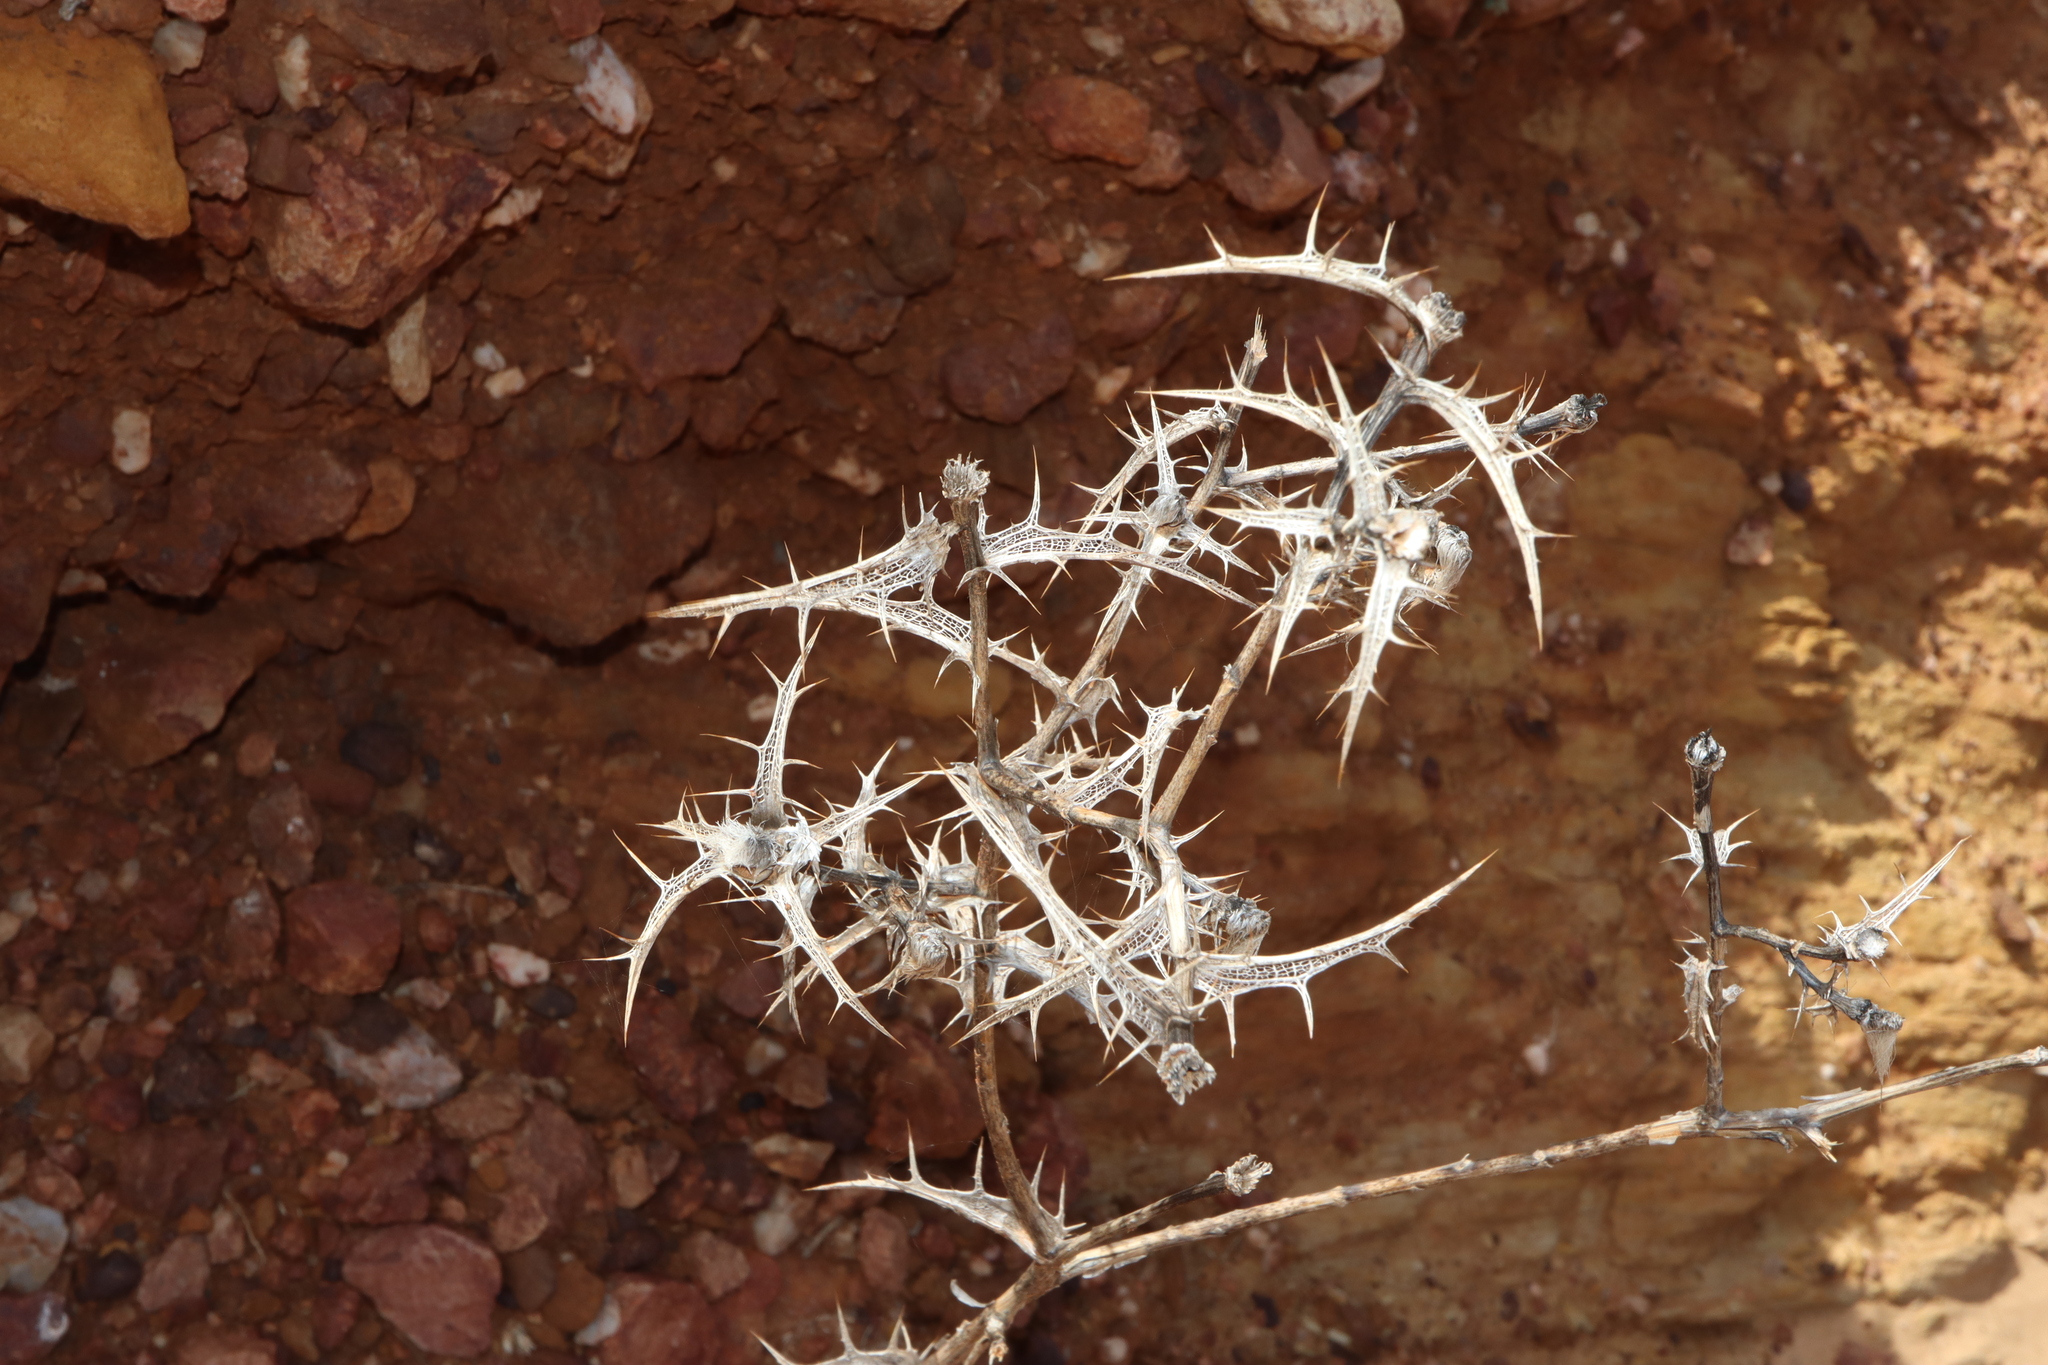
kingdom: Plantae
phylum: Tracheophyta
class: Magnoliopsida
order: Asterales
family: Asteraceae
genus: Carthamus
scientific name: Carthamus lanatus
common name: Downy safflower
